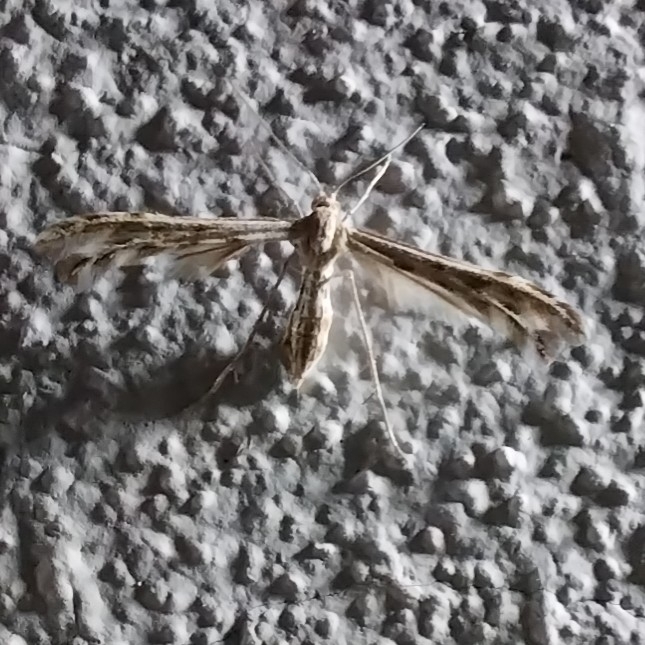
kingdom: Animalia
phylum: Arthropoda
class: Insecta
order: Lepidoptera
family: Pterophoridae
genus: Singularia
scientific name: Singularia alternaria
